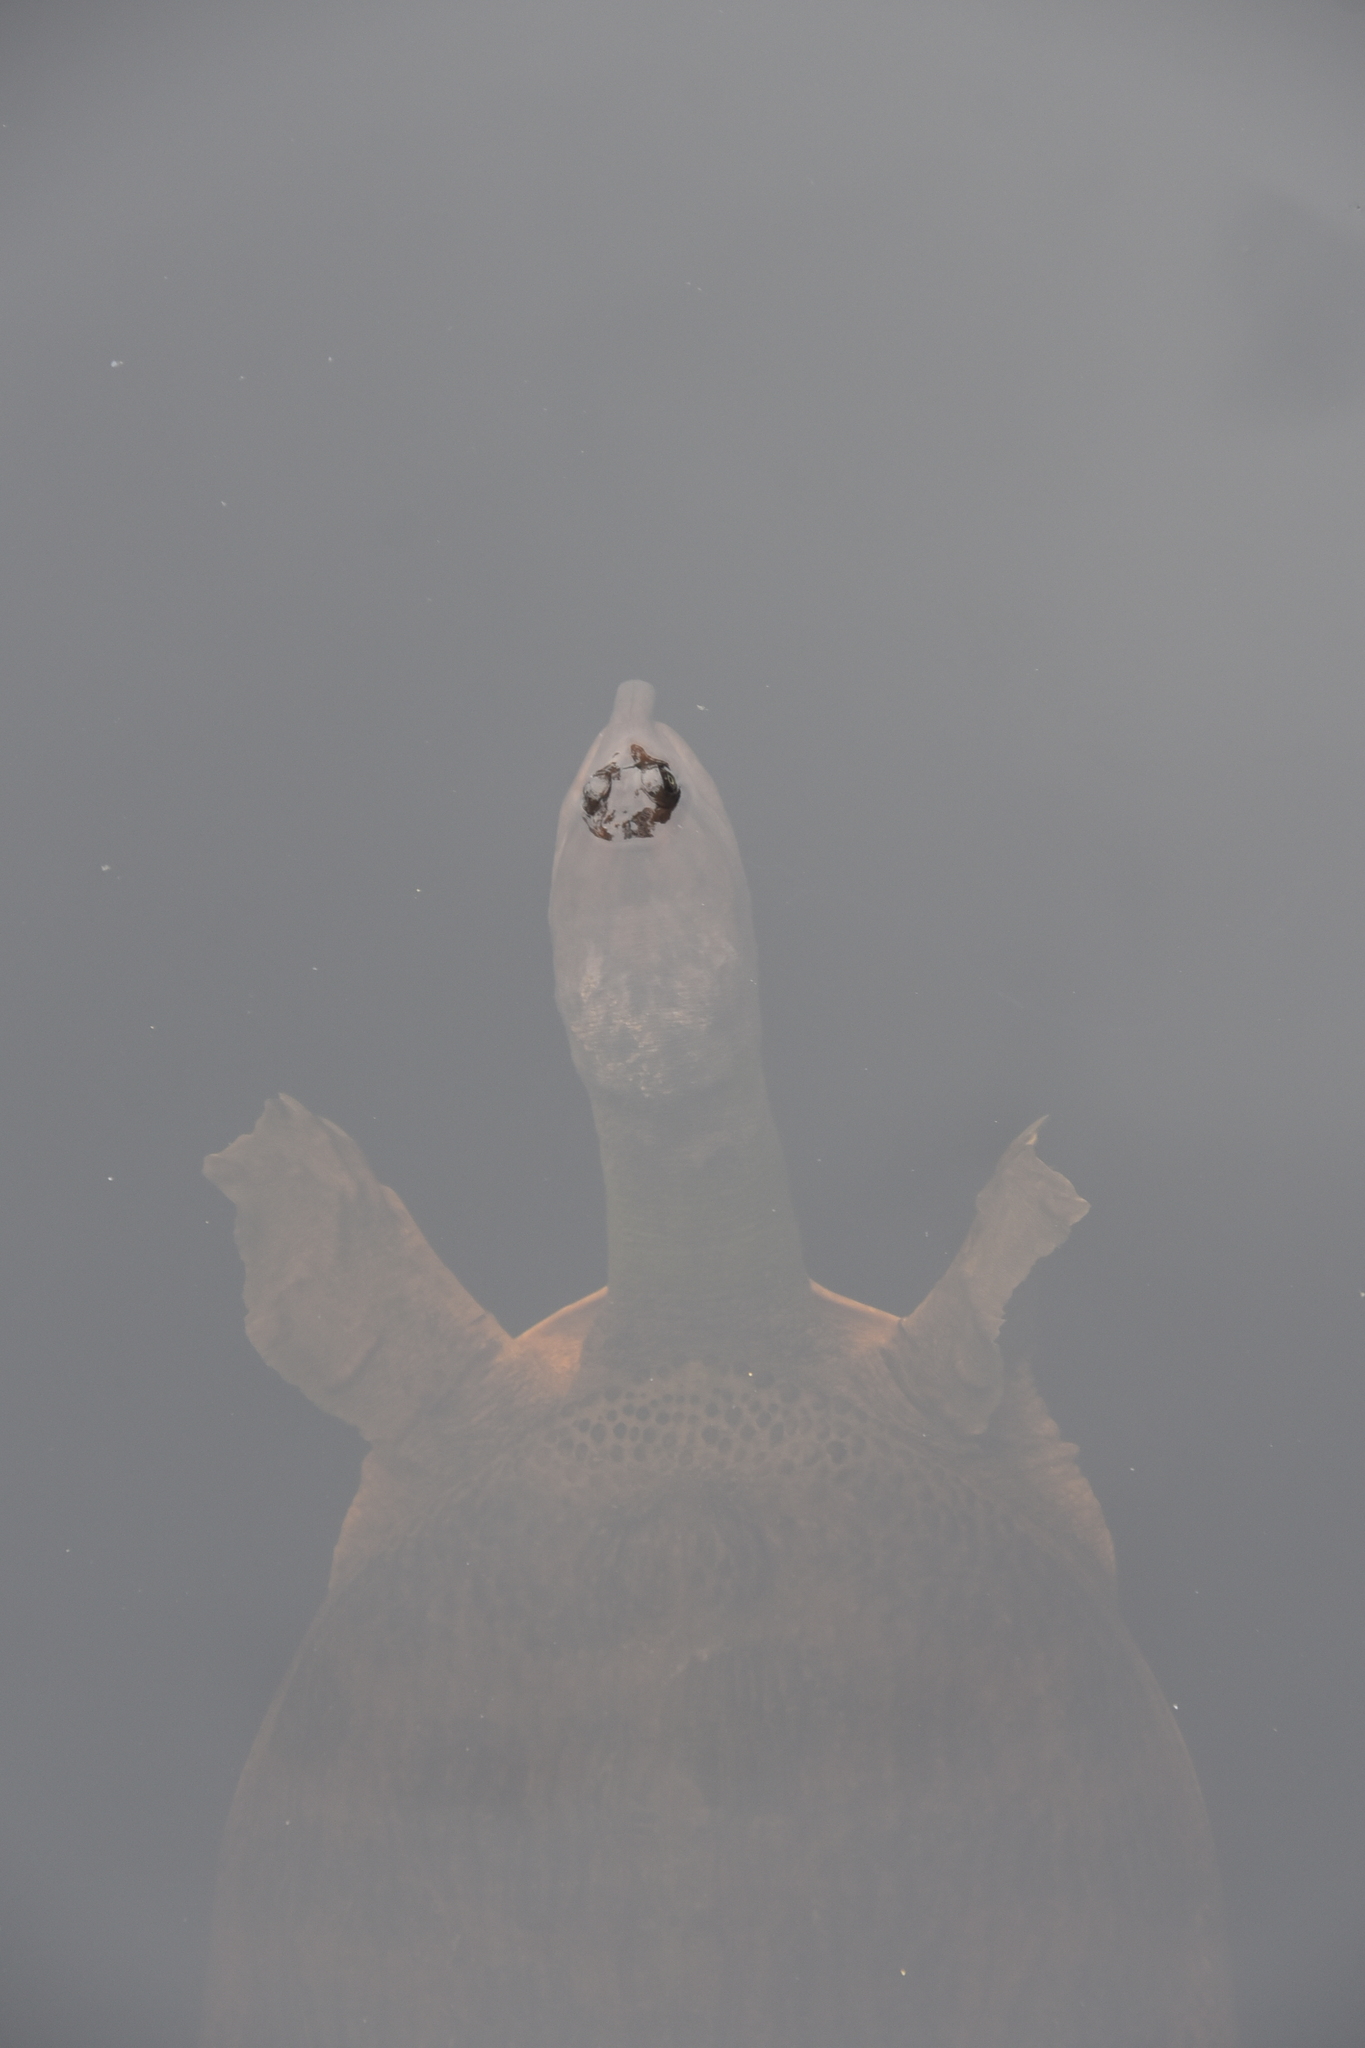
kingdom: Animalia
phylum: Chordata
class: Testudines
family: Trionychidae
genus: Apalone
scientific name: Apalone ferox
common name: Florida softshell turtle
